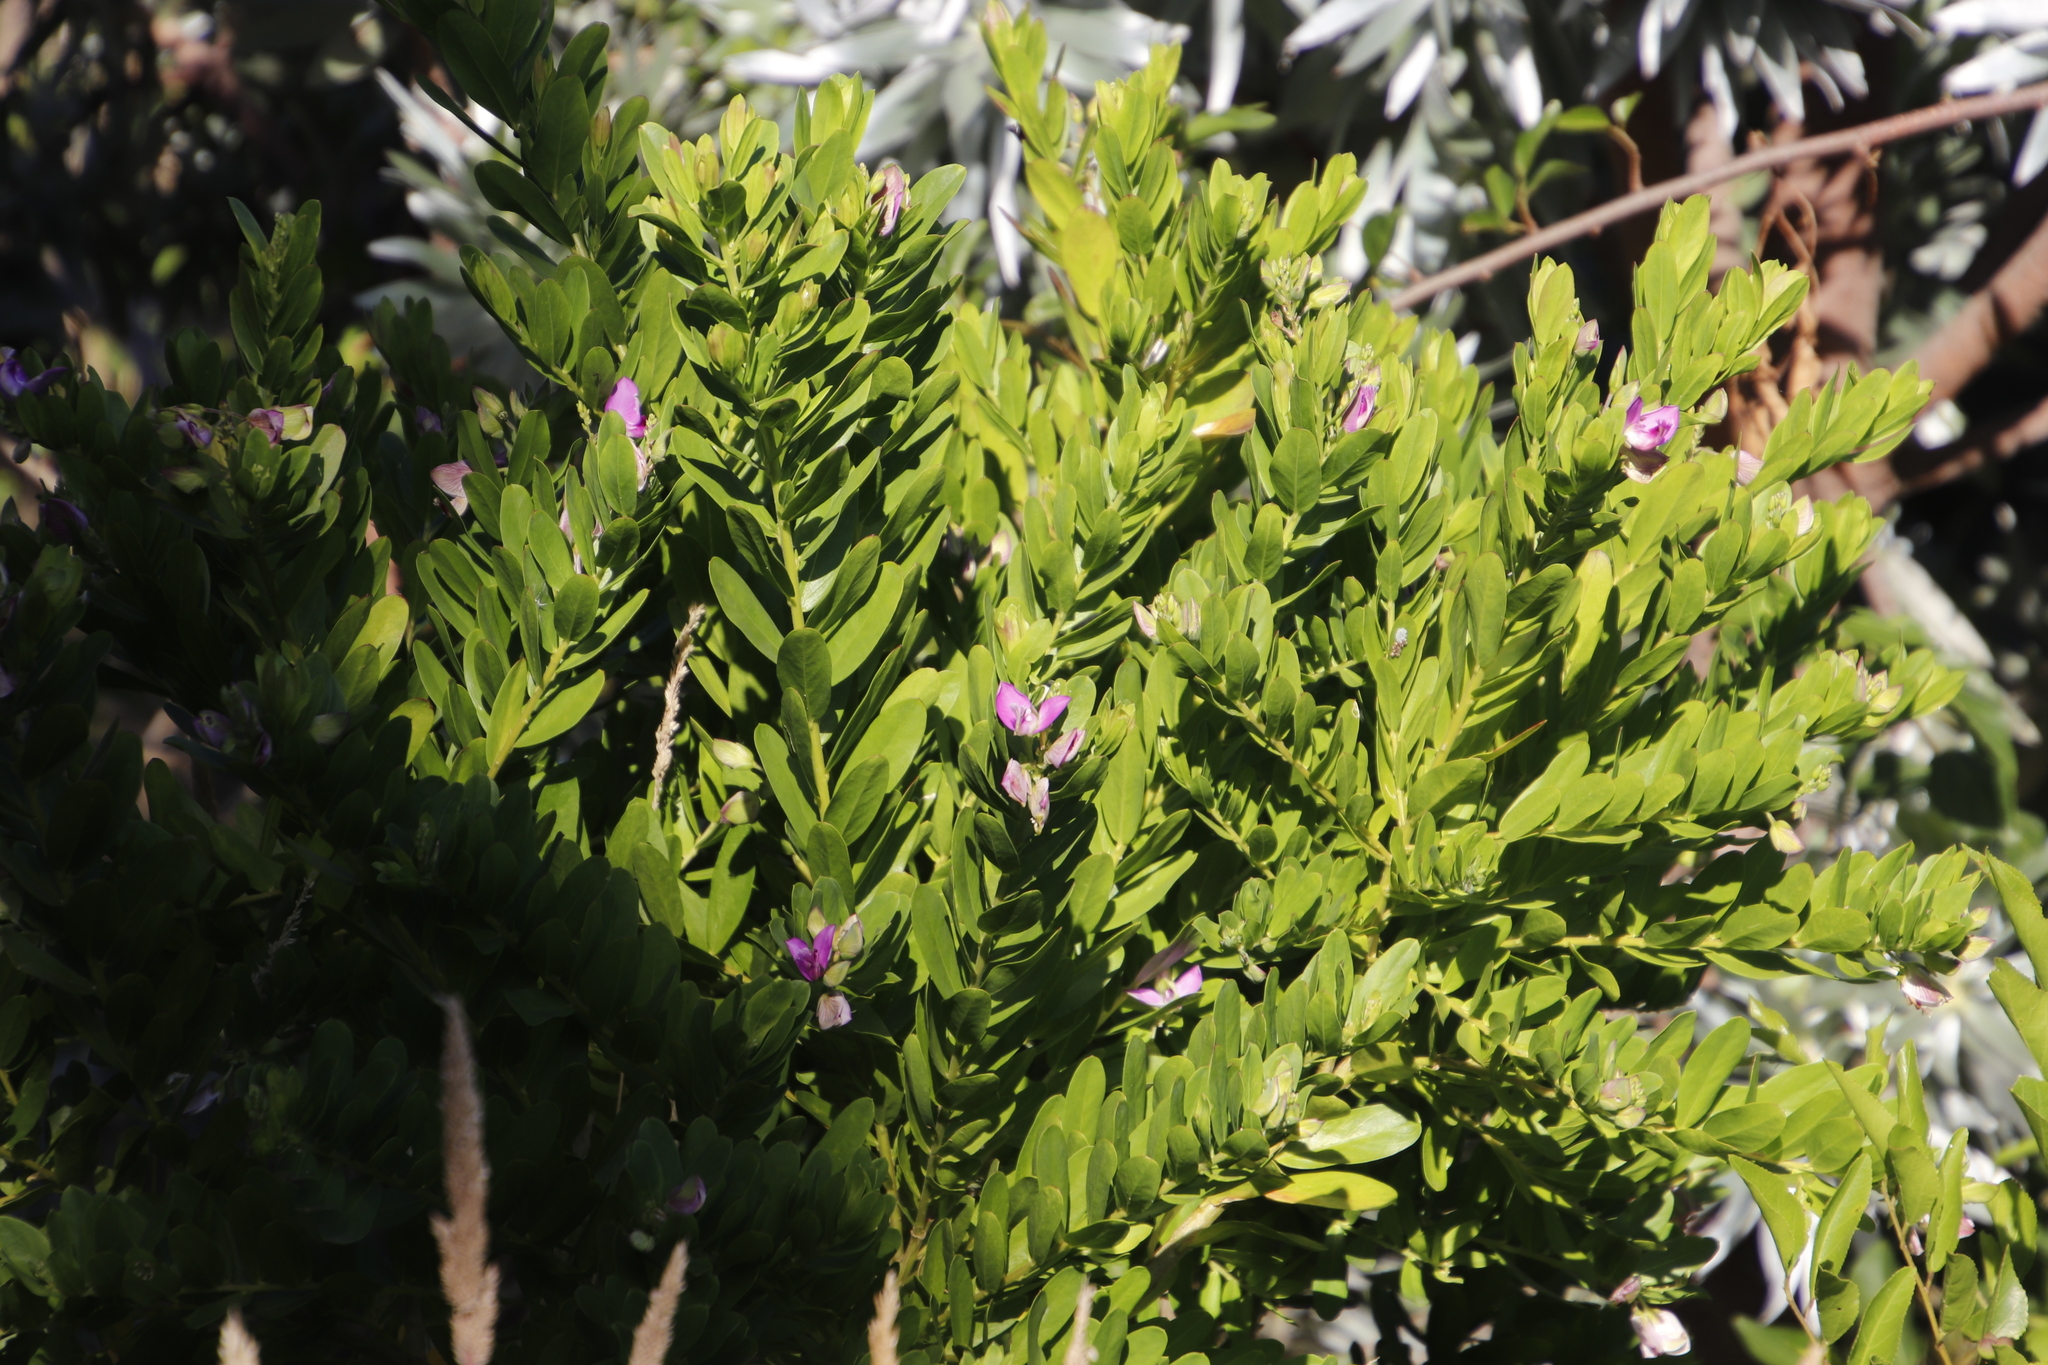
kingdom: Plantae
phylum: Tracheophyta
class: Magnoliopsida
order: Fabales
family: Polygalaceae
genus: Polygala
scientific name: Polygala myrtifolia
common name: Myrtle-leaf milkwort
